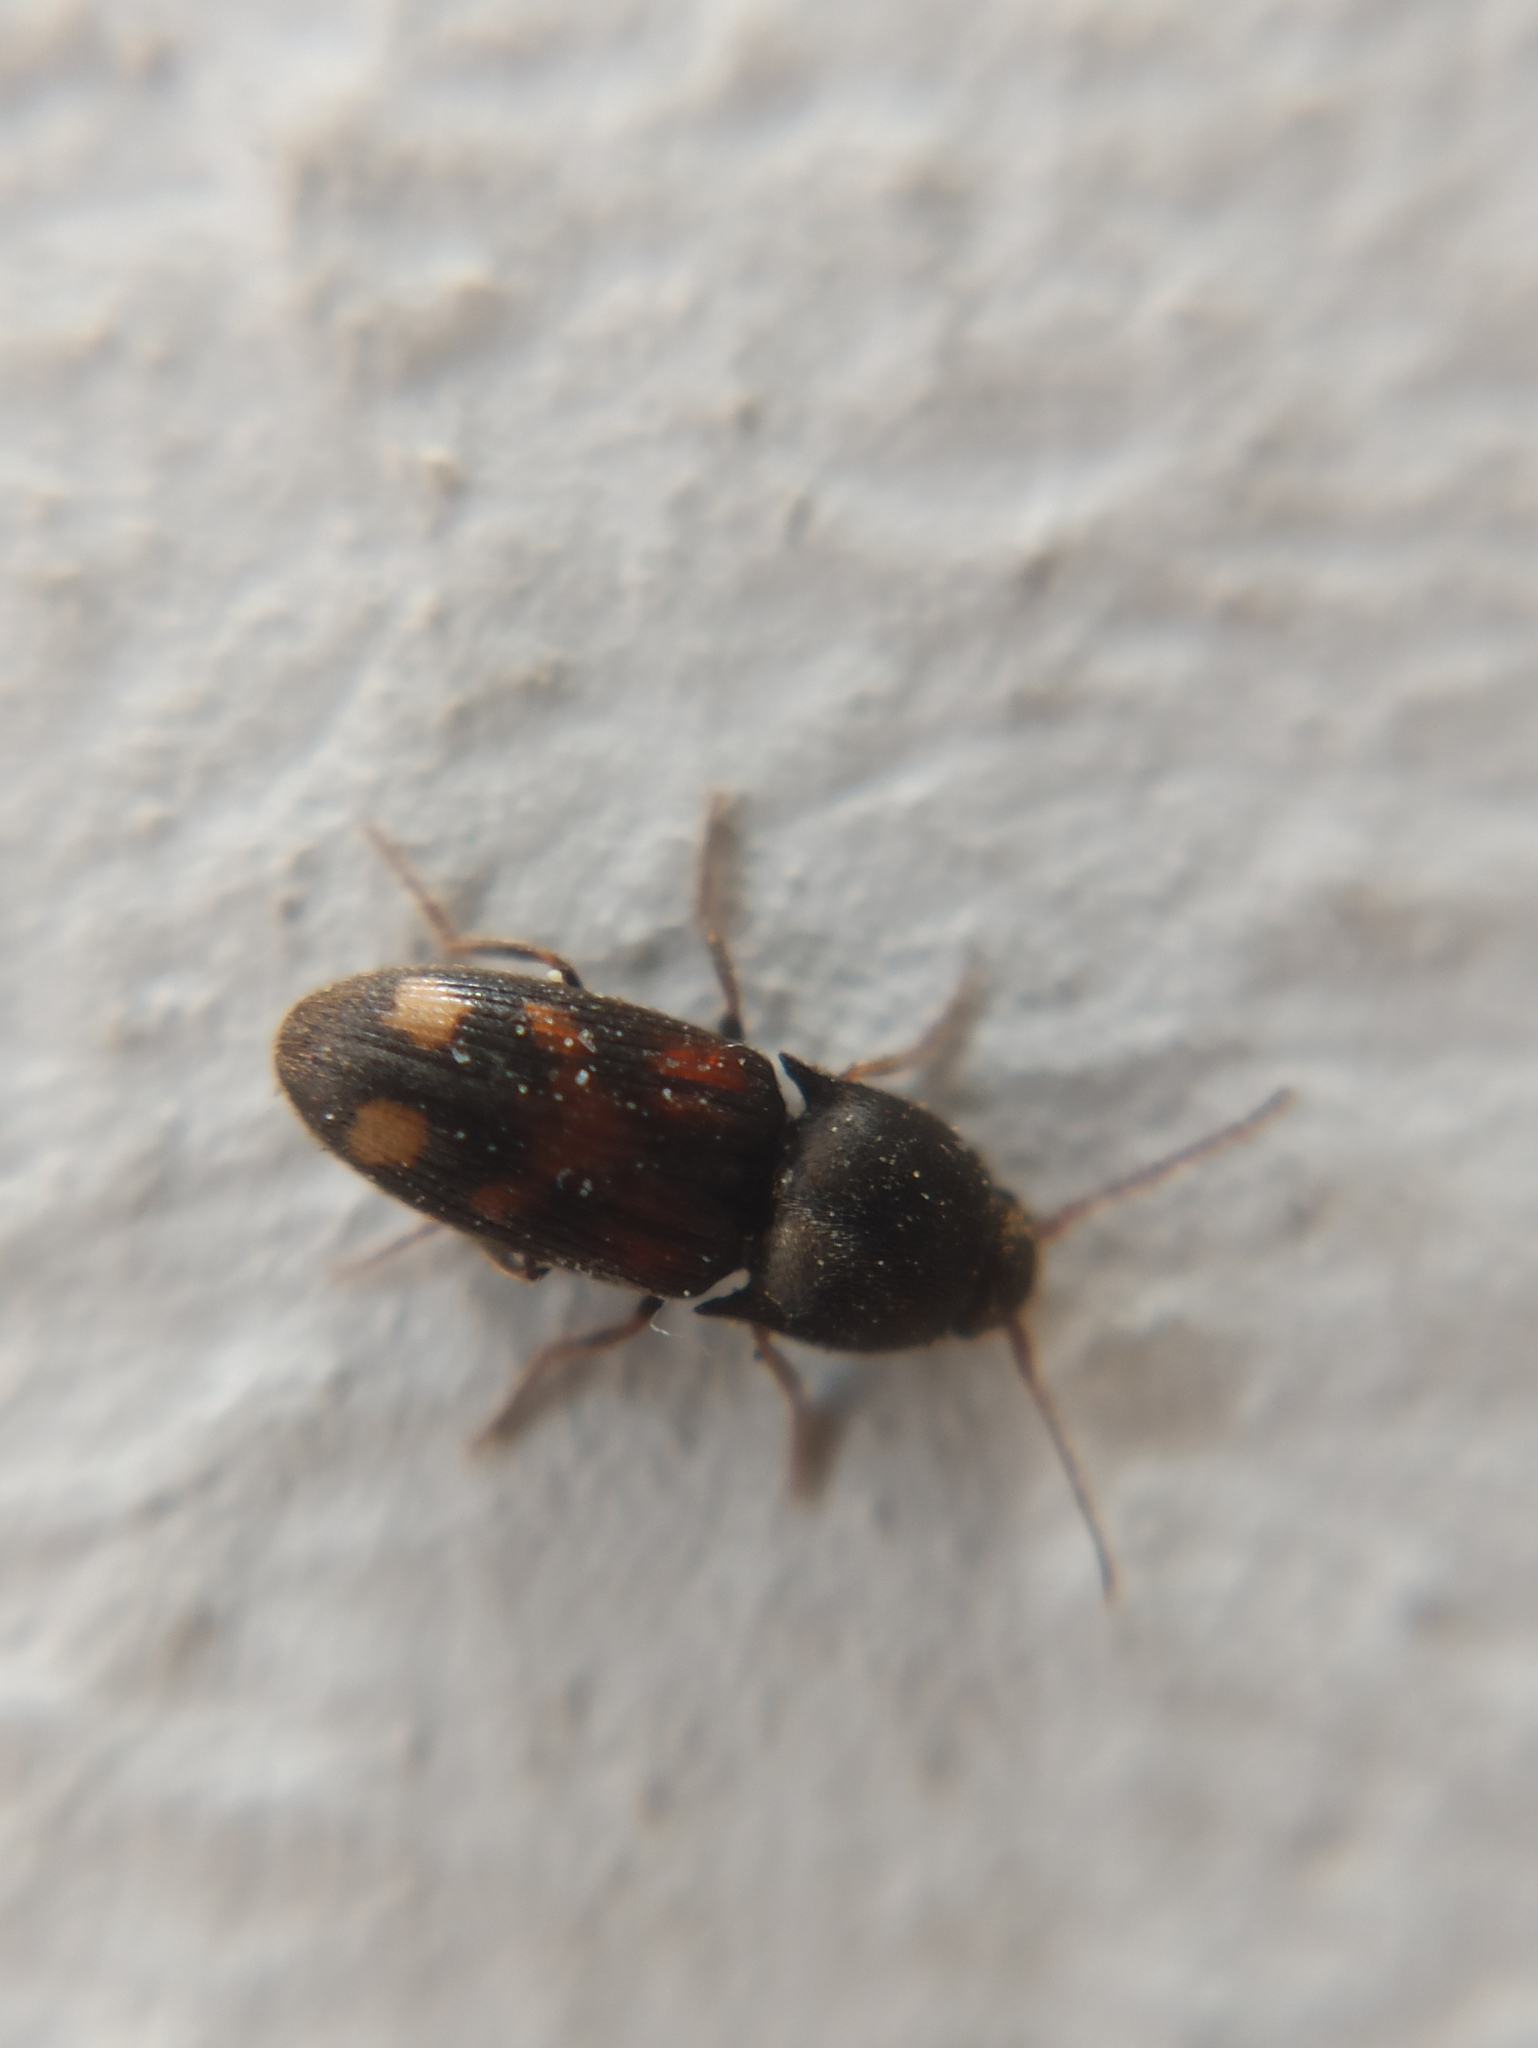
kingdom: Animalia
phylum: Arthropoda
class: Insecta
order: Coleoptera
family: Elateridae
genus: Drasterius
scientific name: Drasterius bimaculatus
